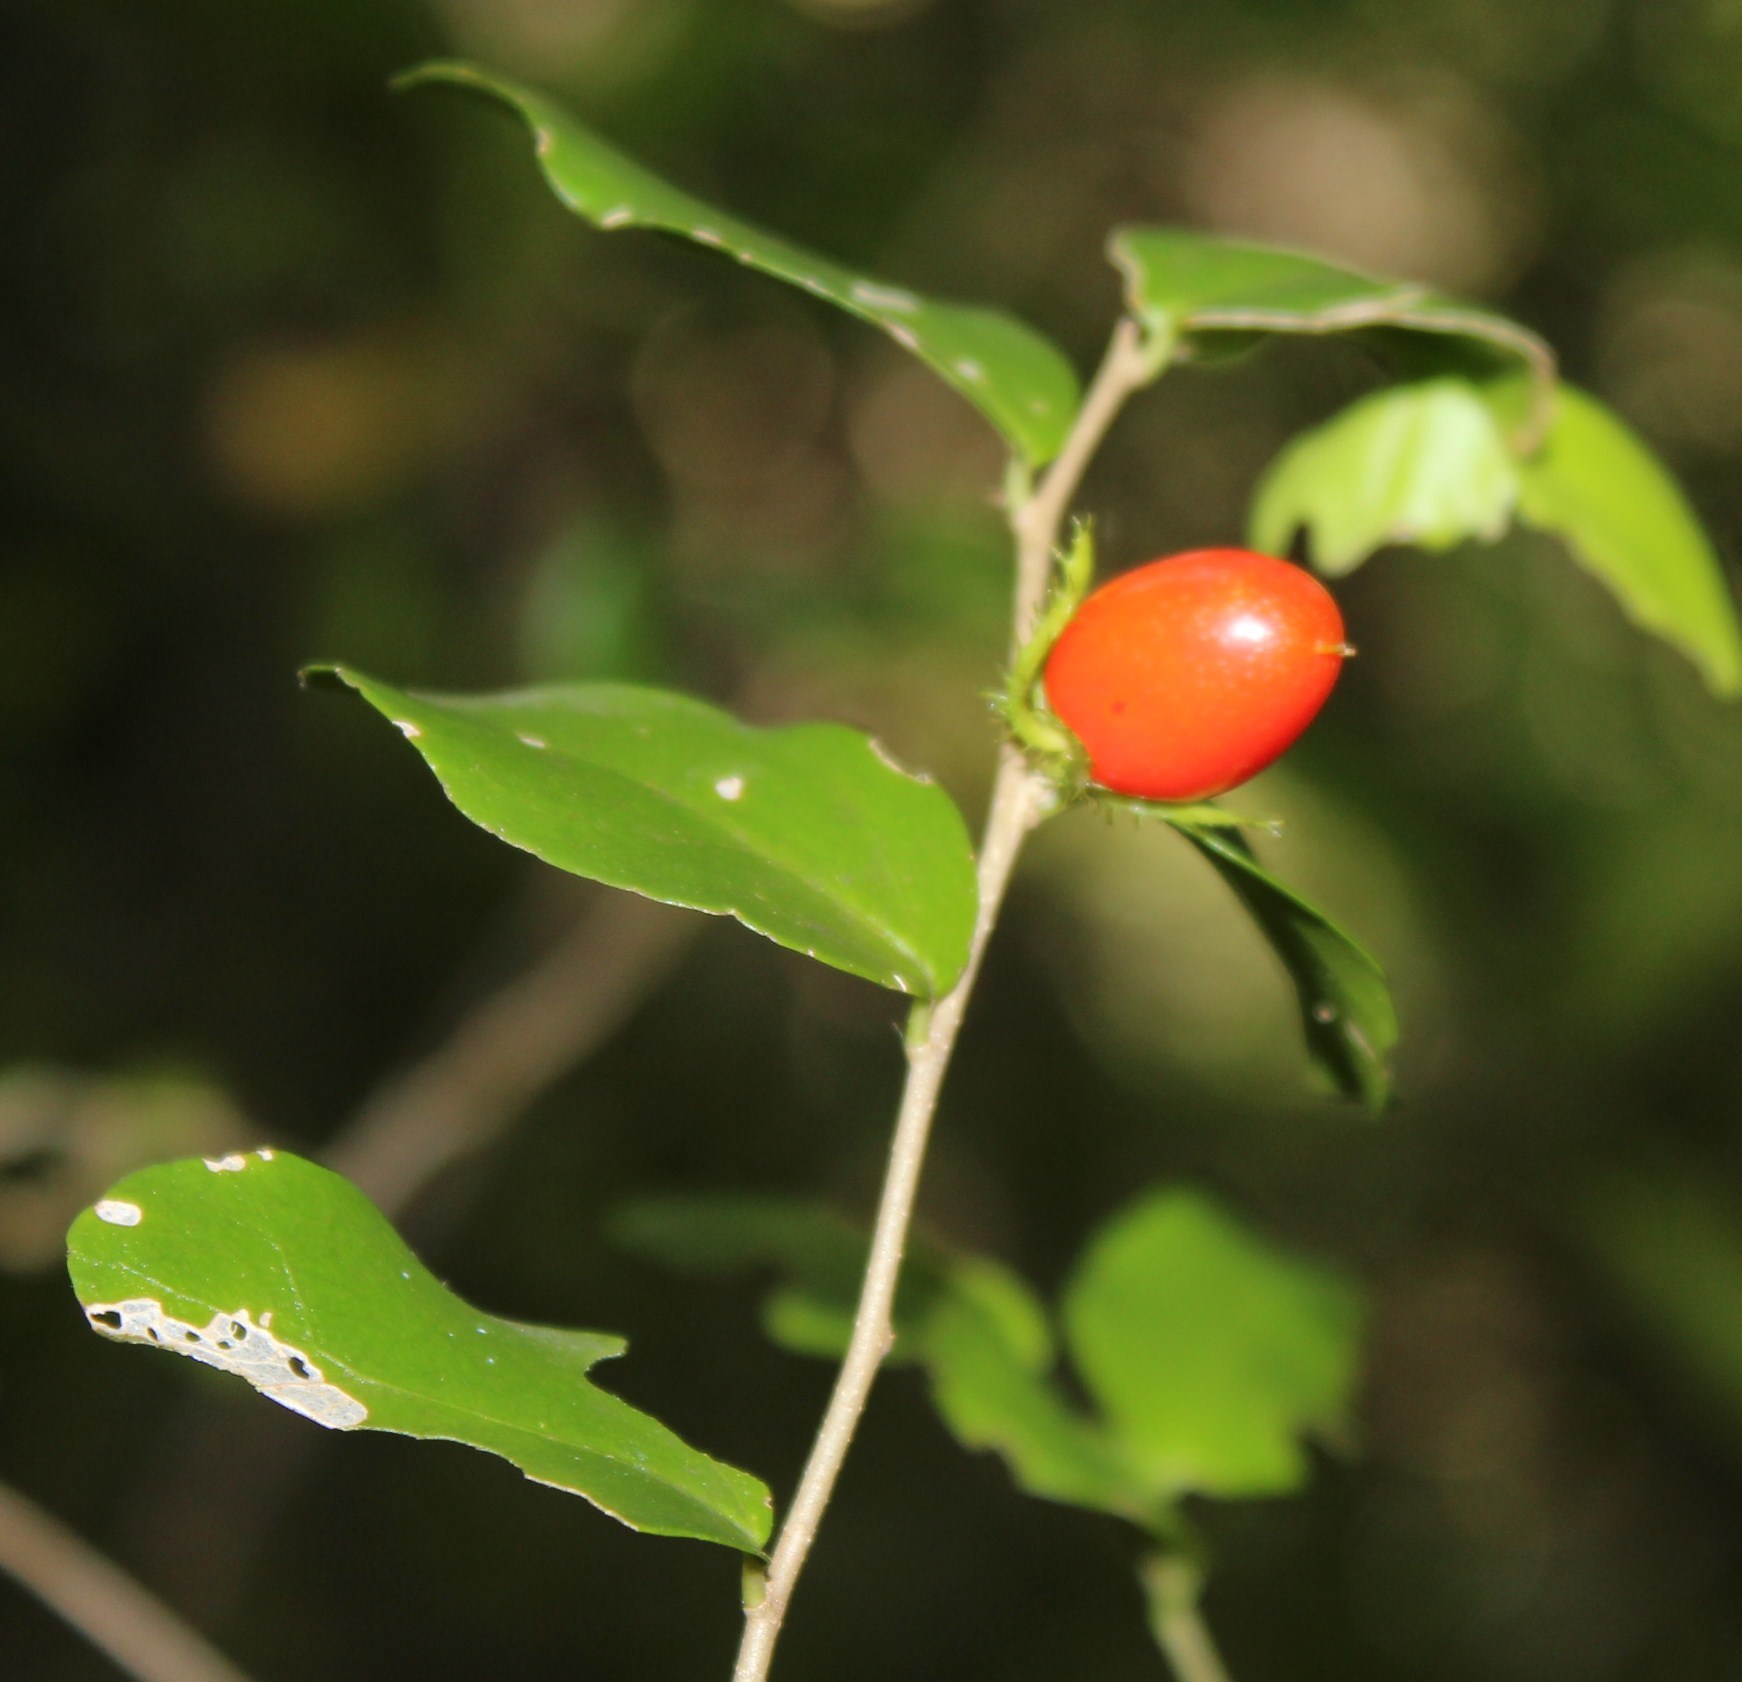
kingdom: Plantae
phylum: Tracheophyta
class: Magnoliopsida
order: Malpighiales
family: Salicaceae
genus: Dovyalis
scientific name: Dovyalis rhamnoides
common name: Sourberry
